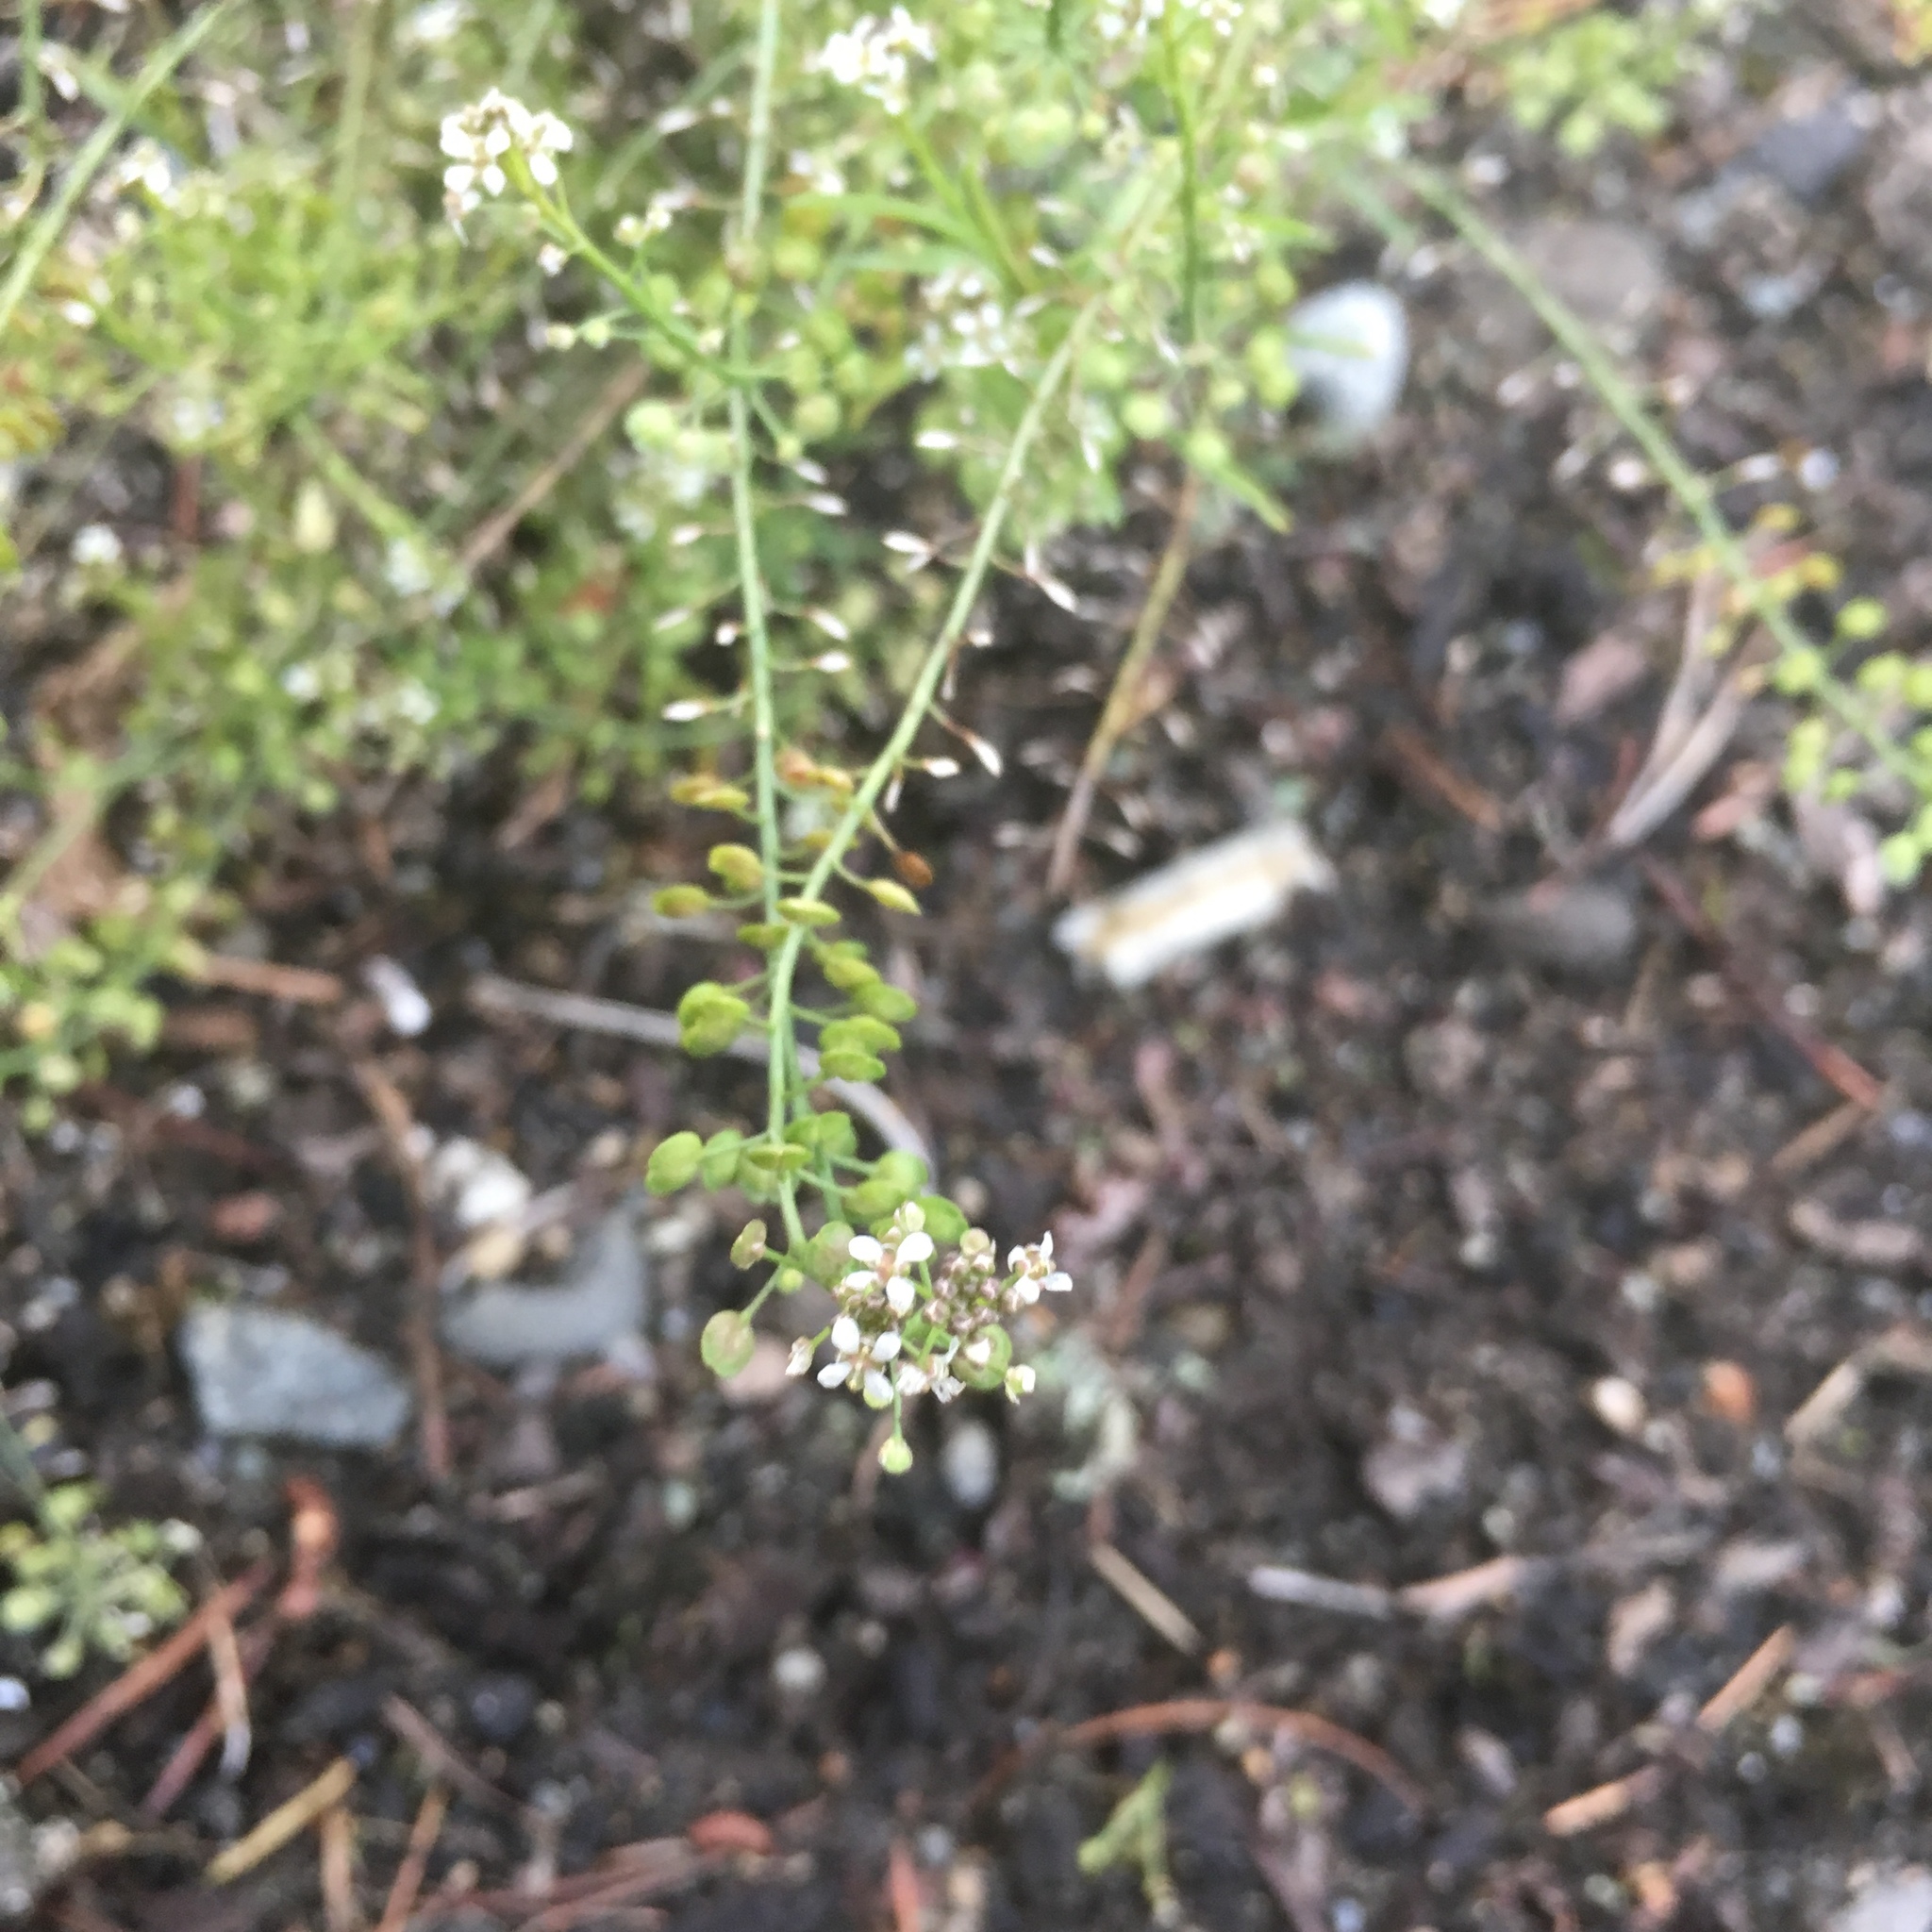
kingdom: Plantae
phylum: Tracheophyta
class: Magnoliopsida
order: Brassicales
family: Brassicaceae
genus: Lepidium
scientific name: Lepidium virginicum
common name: Least pepperwort
